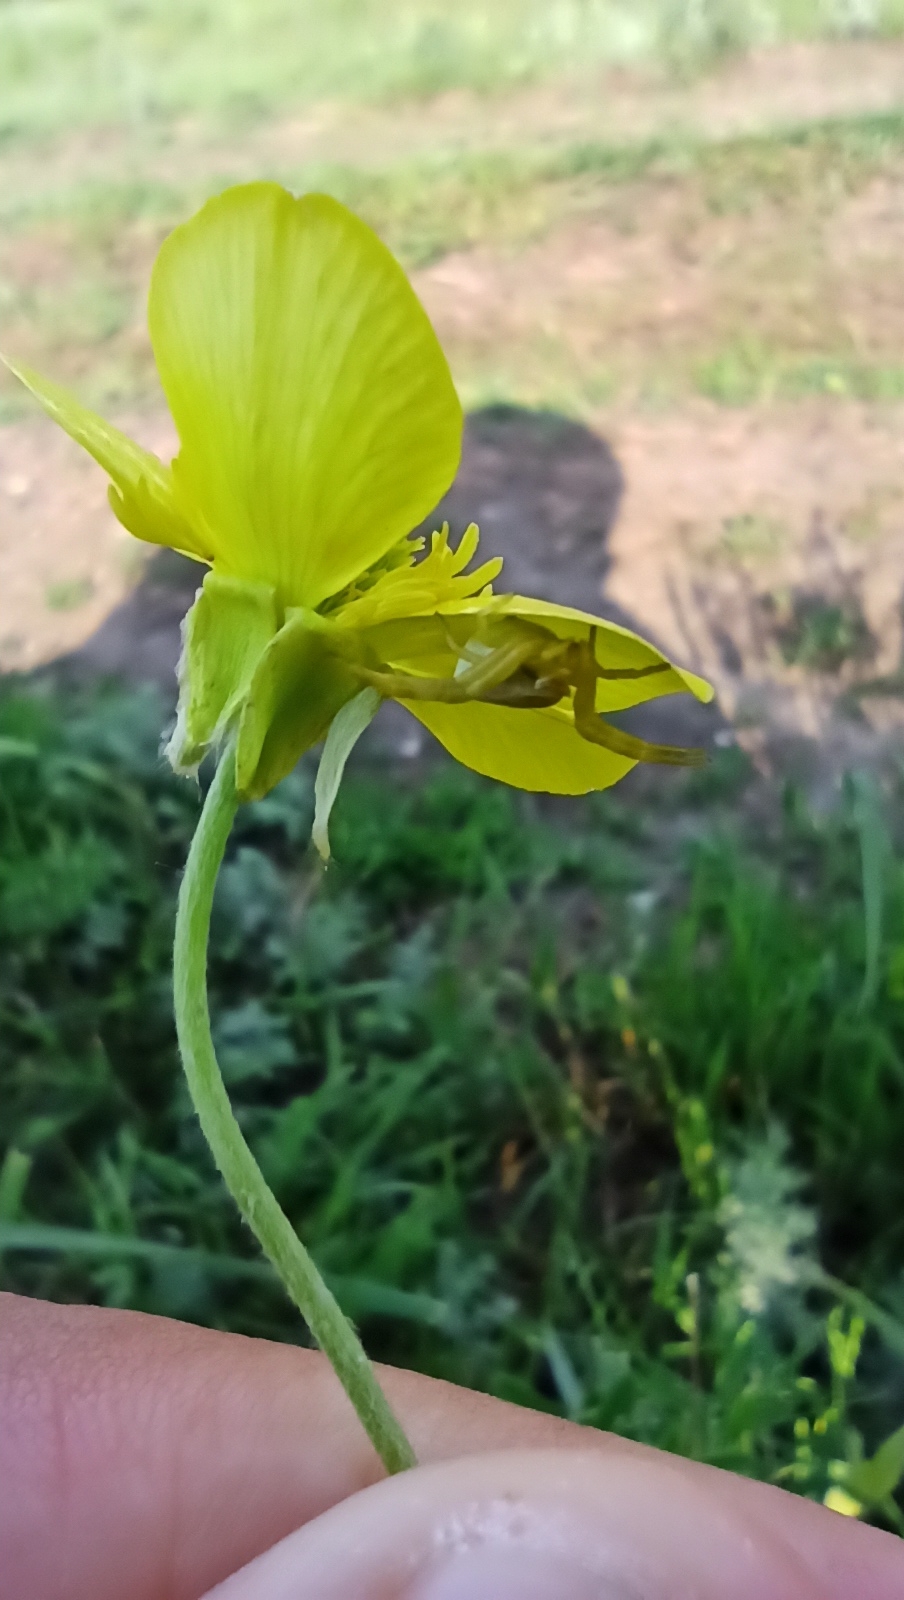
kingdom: Animalia
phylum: Arthropoda
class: Arachnida
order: Araneae
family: Thomisidae
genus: Thomisus
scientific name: Thomisus onustus
